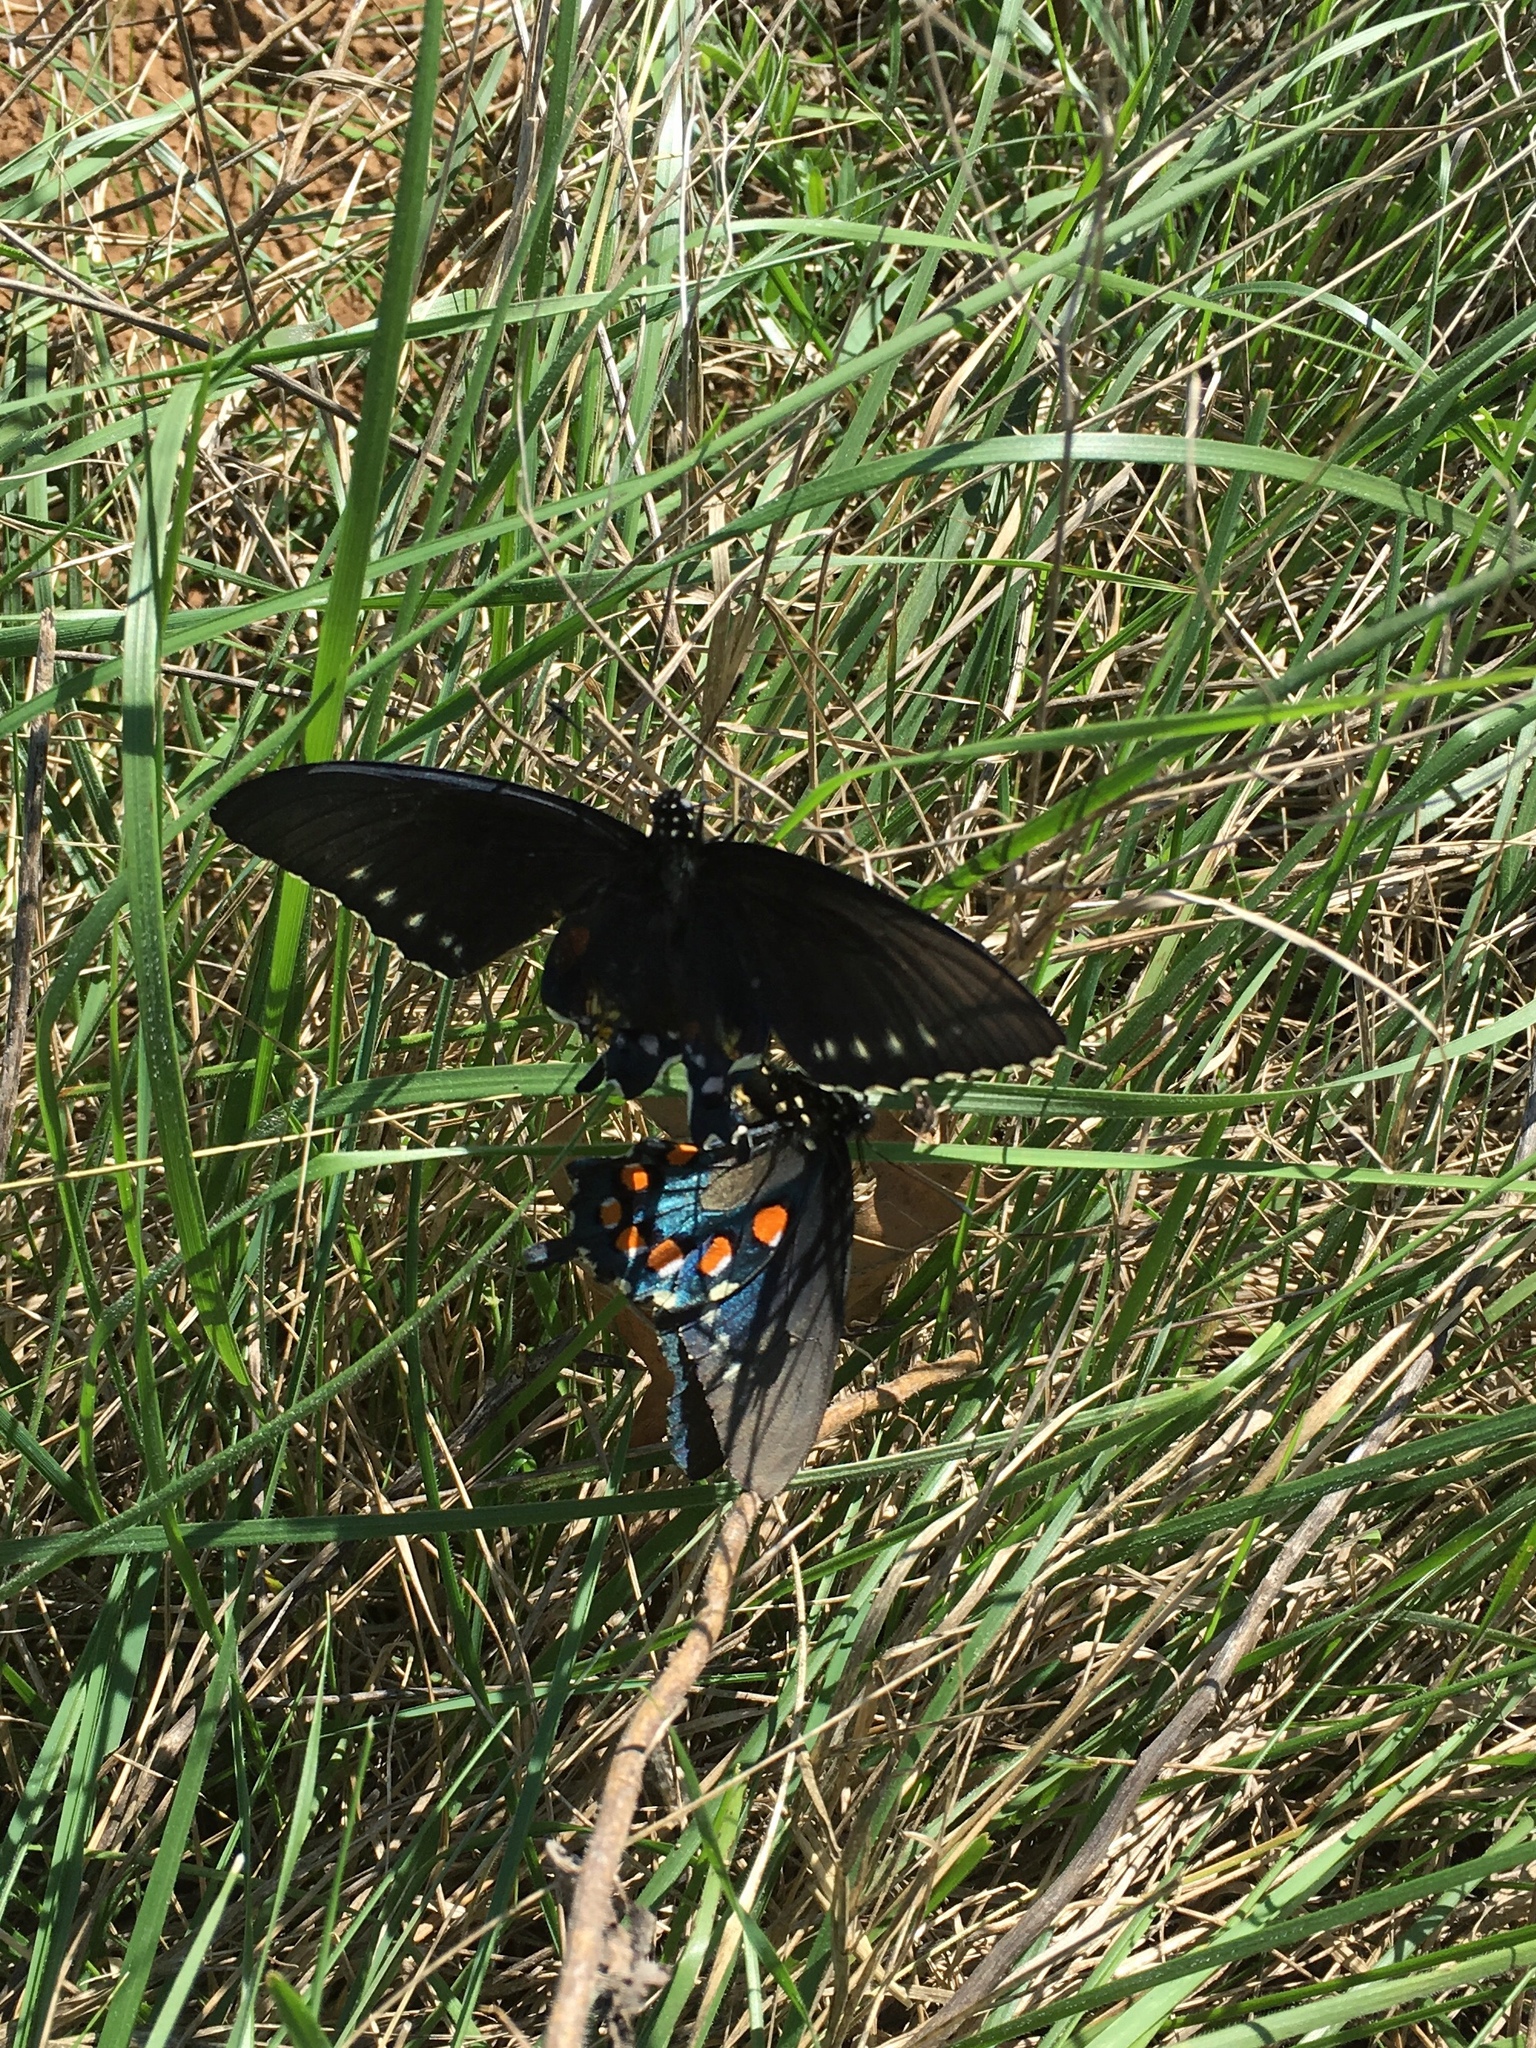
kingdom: Animalia
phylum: Arthropoda
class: Insecta
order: Lepidoptera
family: Papilionidae
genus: Battus
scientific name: Battus philenor
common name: Pipevine swallowtail
